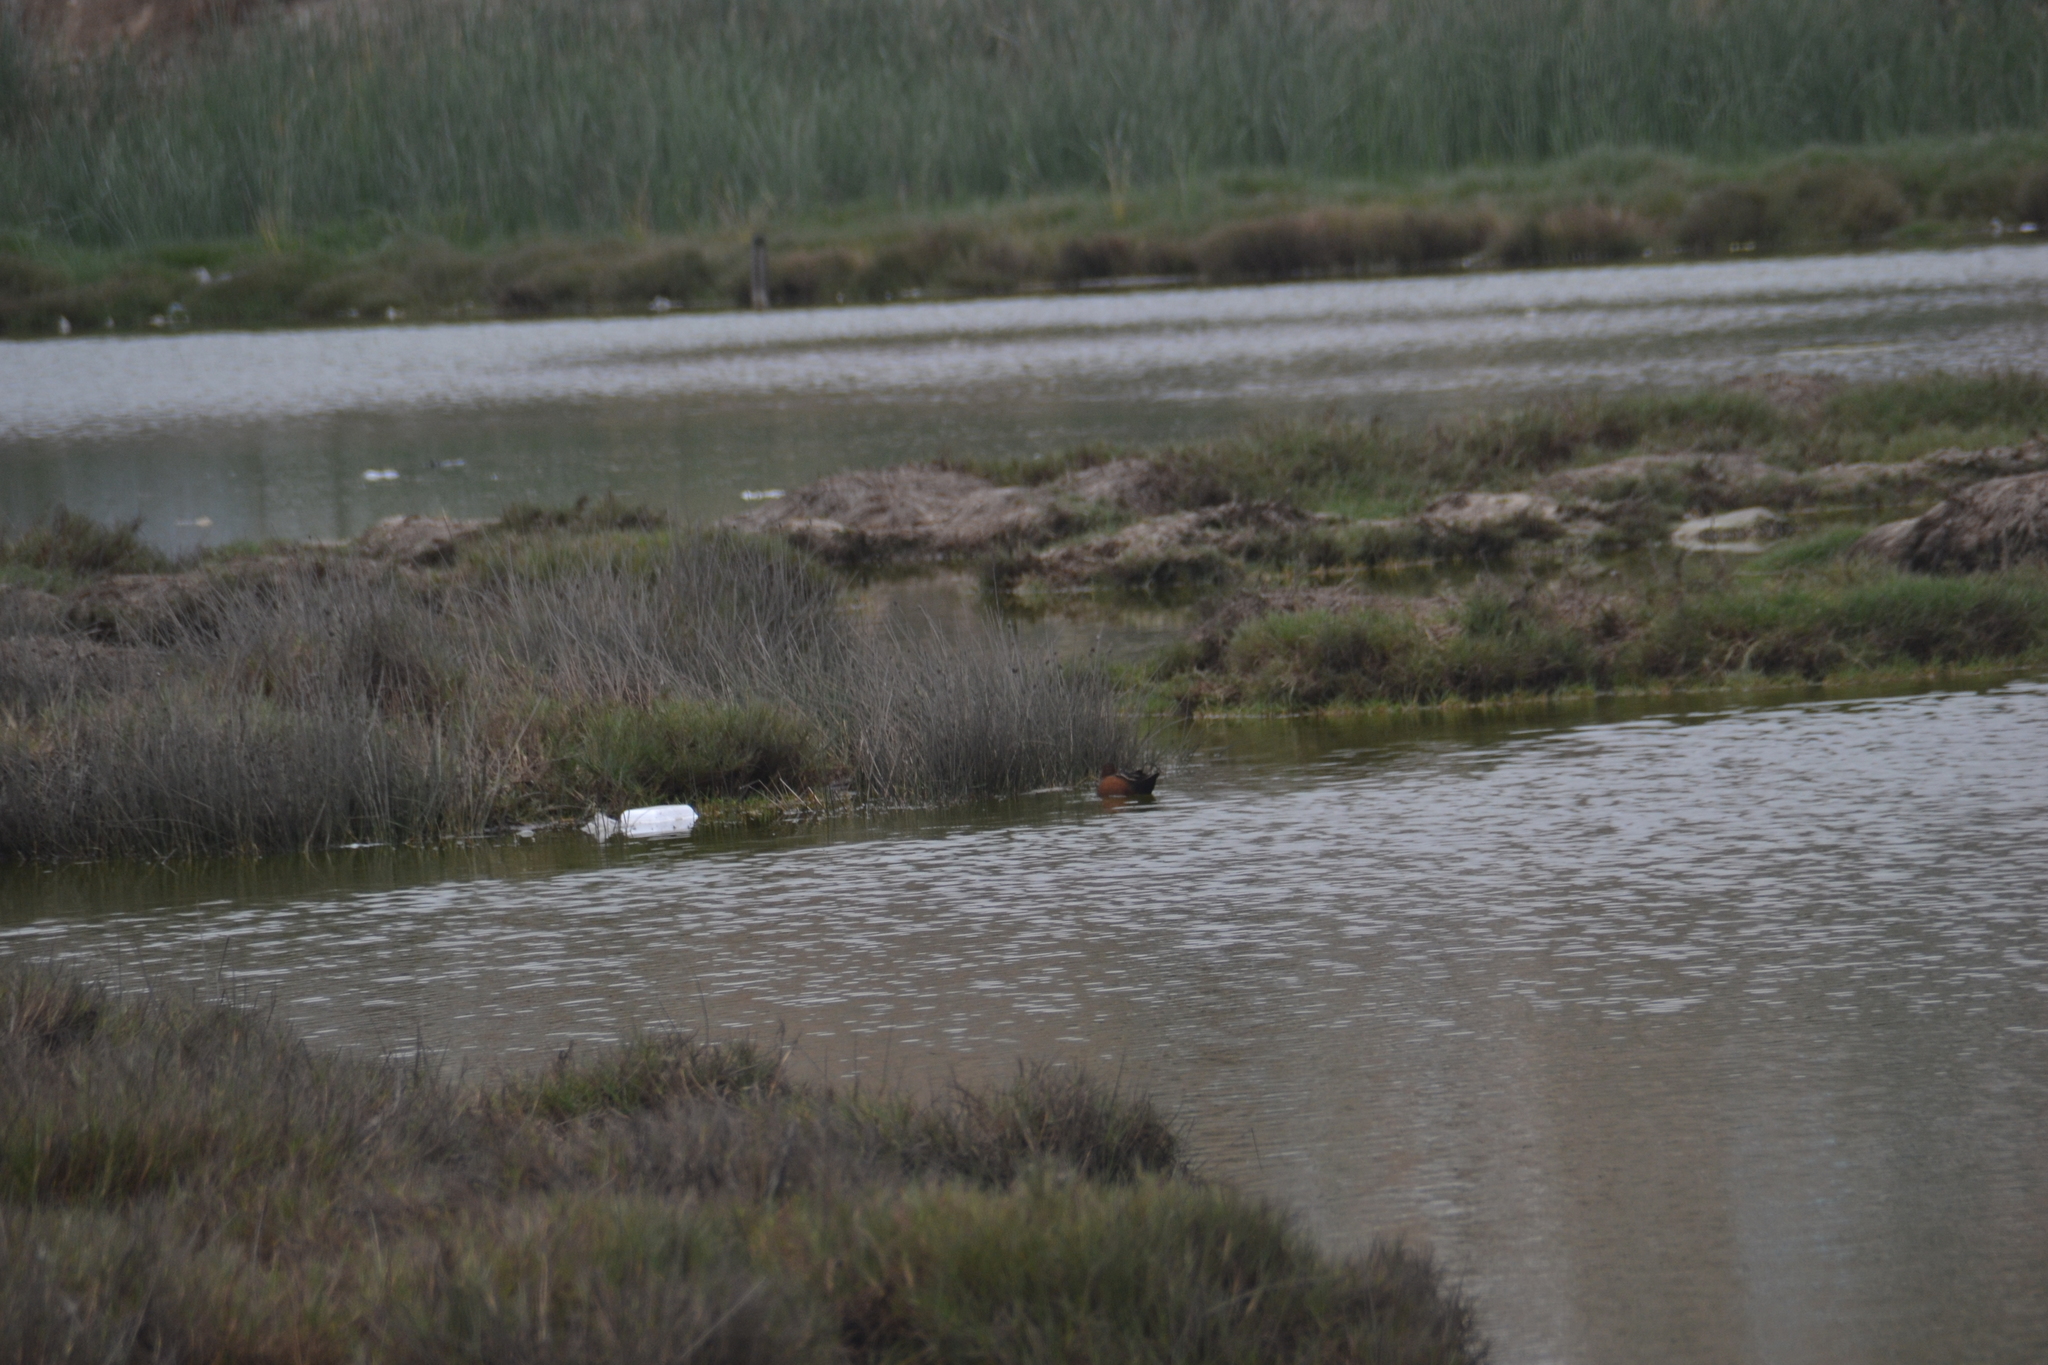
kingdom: Animalia
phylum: Chordata
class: Aves
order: Anseriformes
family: Anatidae
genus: Spatula
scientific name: Spatula cyanoptera
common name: Cinnamon teal
